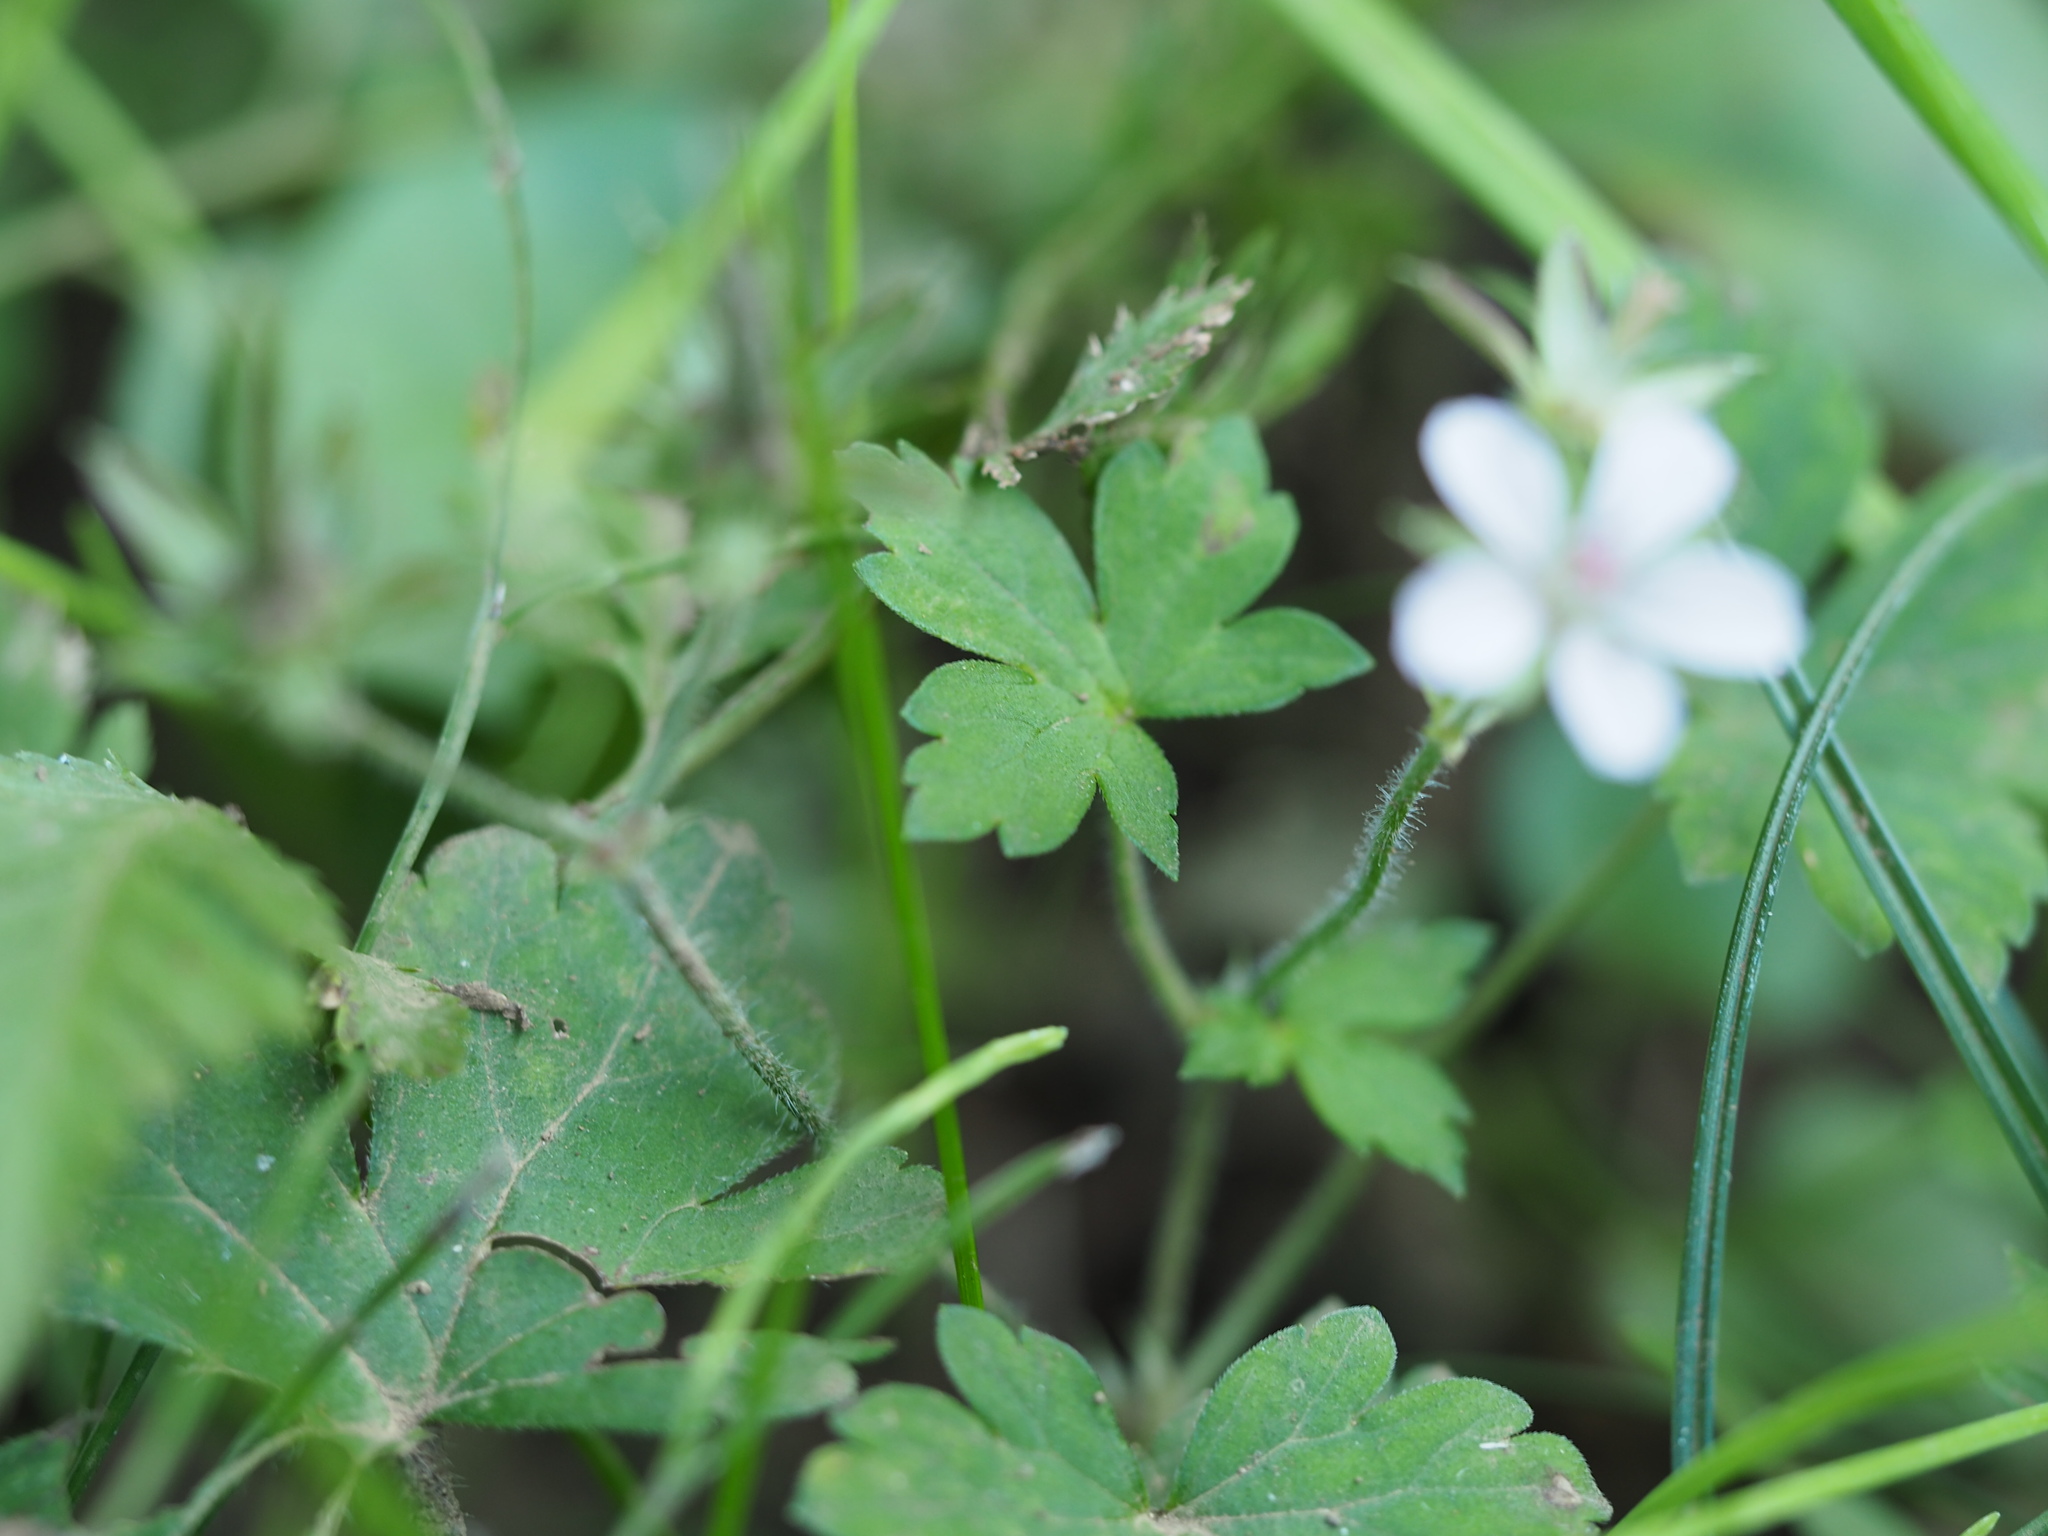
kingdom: Plantae
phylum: Tracheophyta
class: Magnoliopsida
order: Geraniales
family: Geraniaceae
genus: Geranium
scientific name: Geranium thunbergii
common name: Dewdrop crane's-bill
